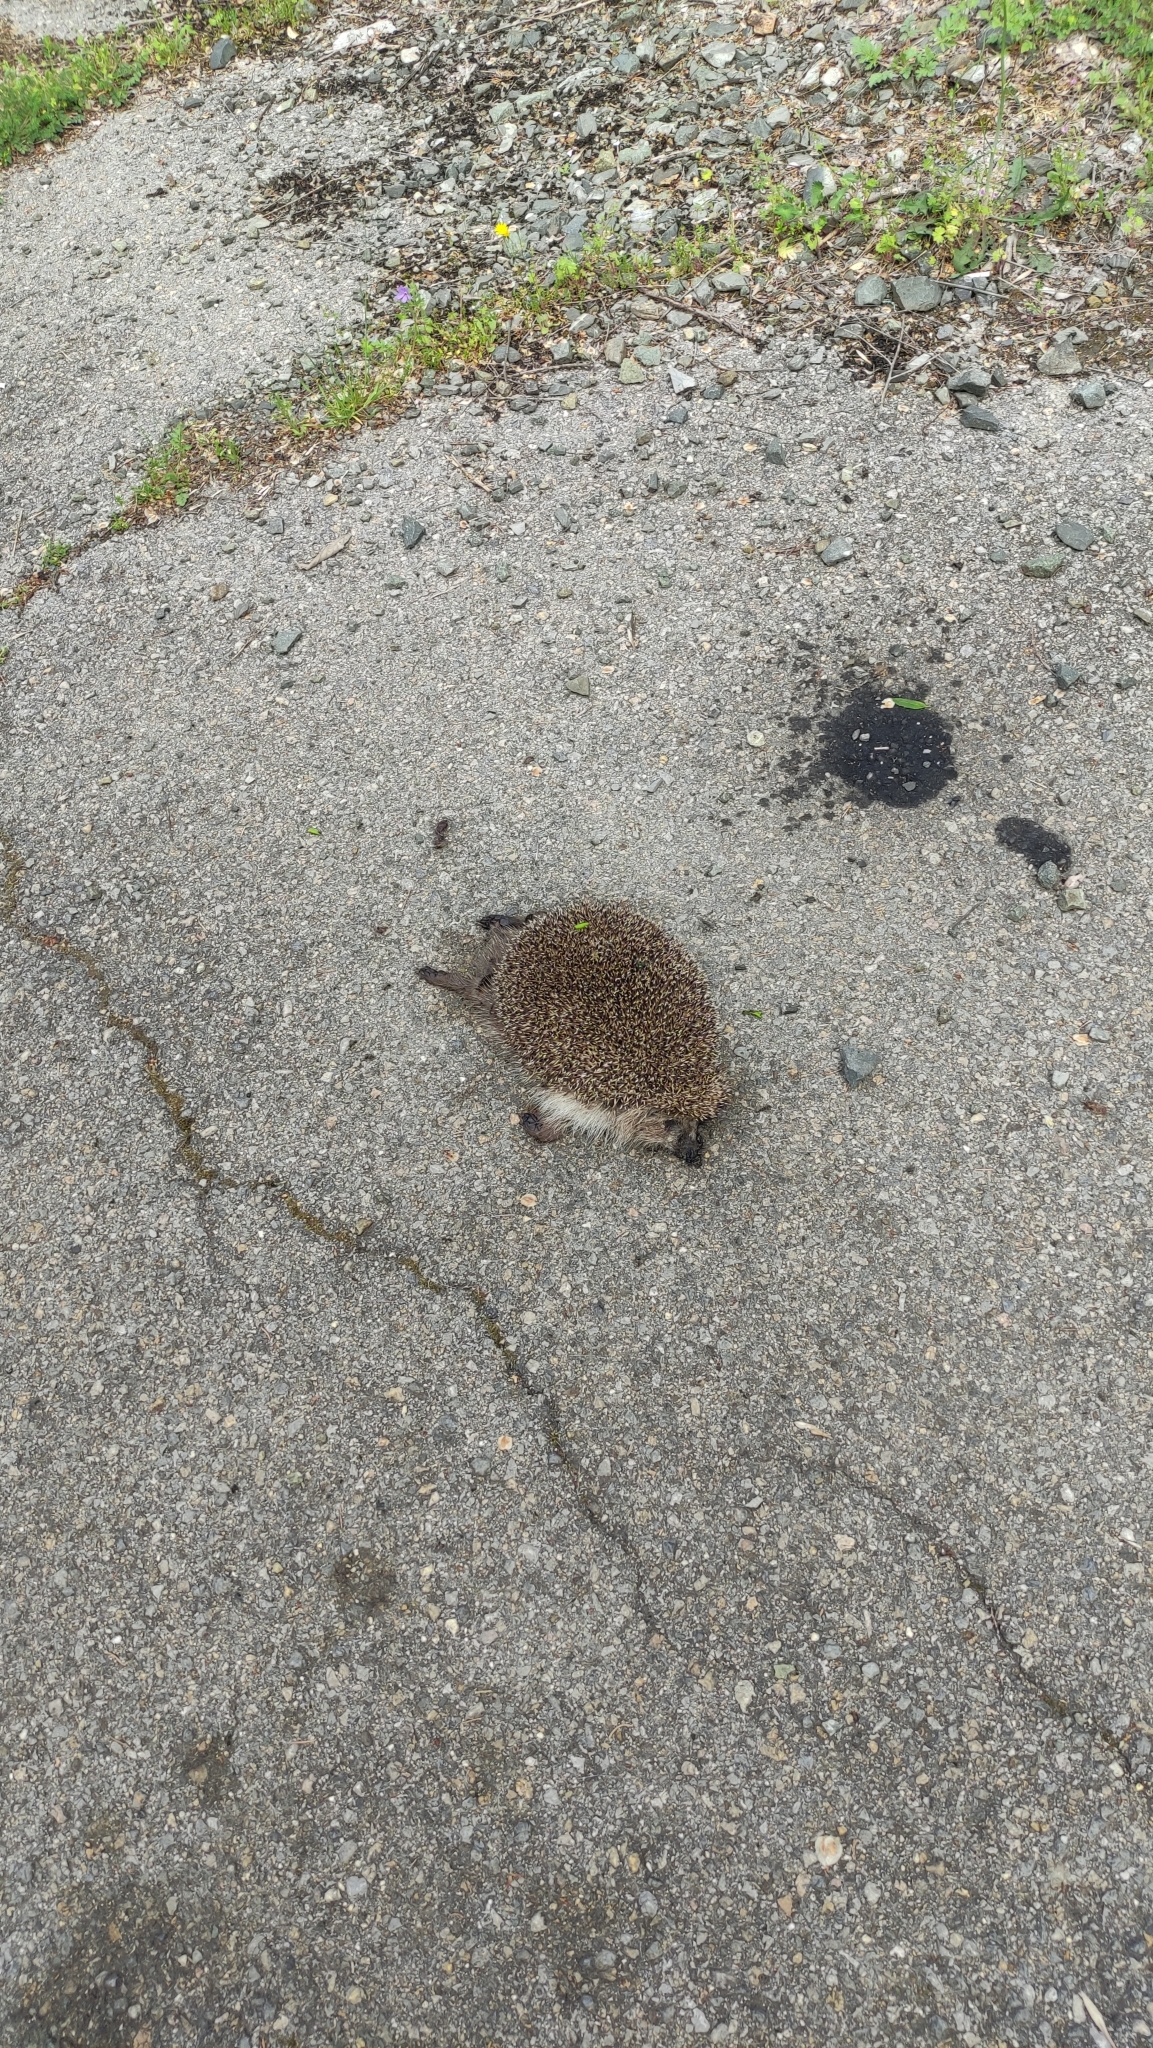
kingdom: Animalia
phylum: Chordata
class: Mammalia
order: Erinaceomorpha
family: Erinaceidae
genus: Erinaceus
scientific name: Erinaceus roumanicus
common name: Northern white-breasted hedgehog
